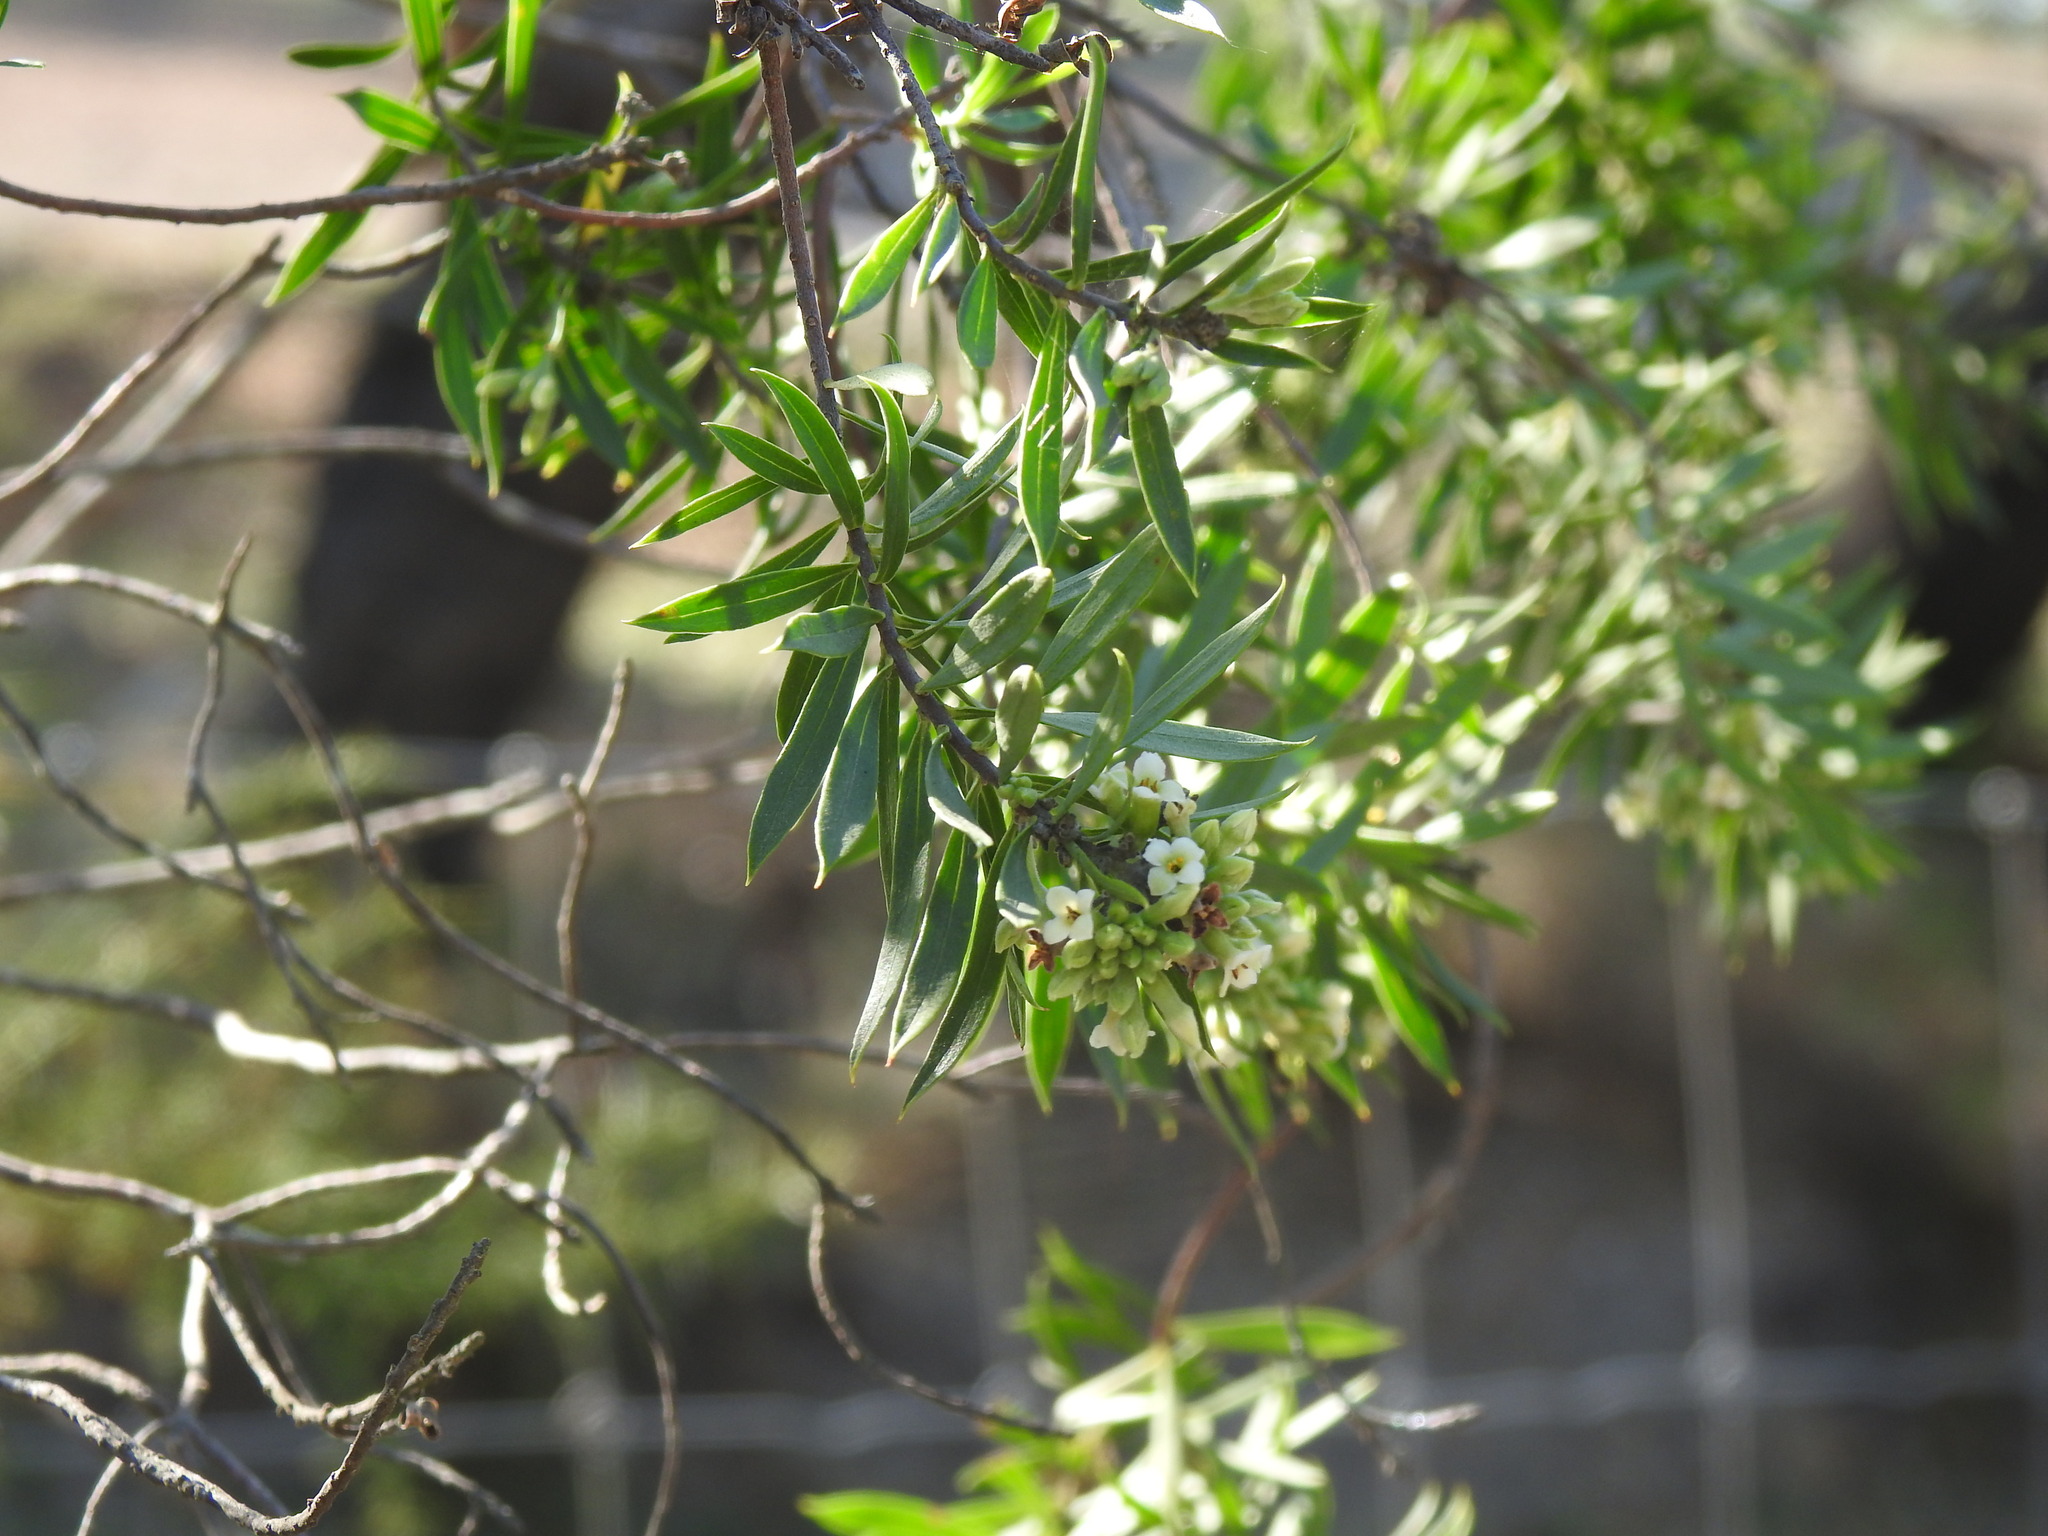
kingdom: Plantae
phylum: Tracheophyta
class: Magnoliopsida
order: Malvales
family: Thymelaeaceae
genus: Daphne
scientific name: Daphne gnidium
